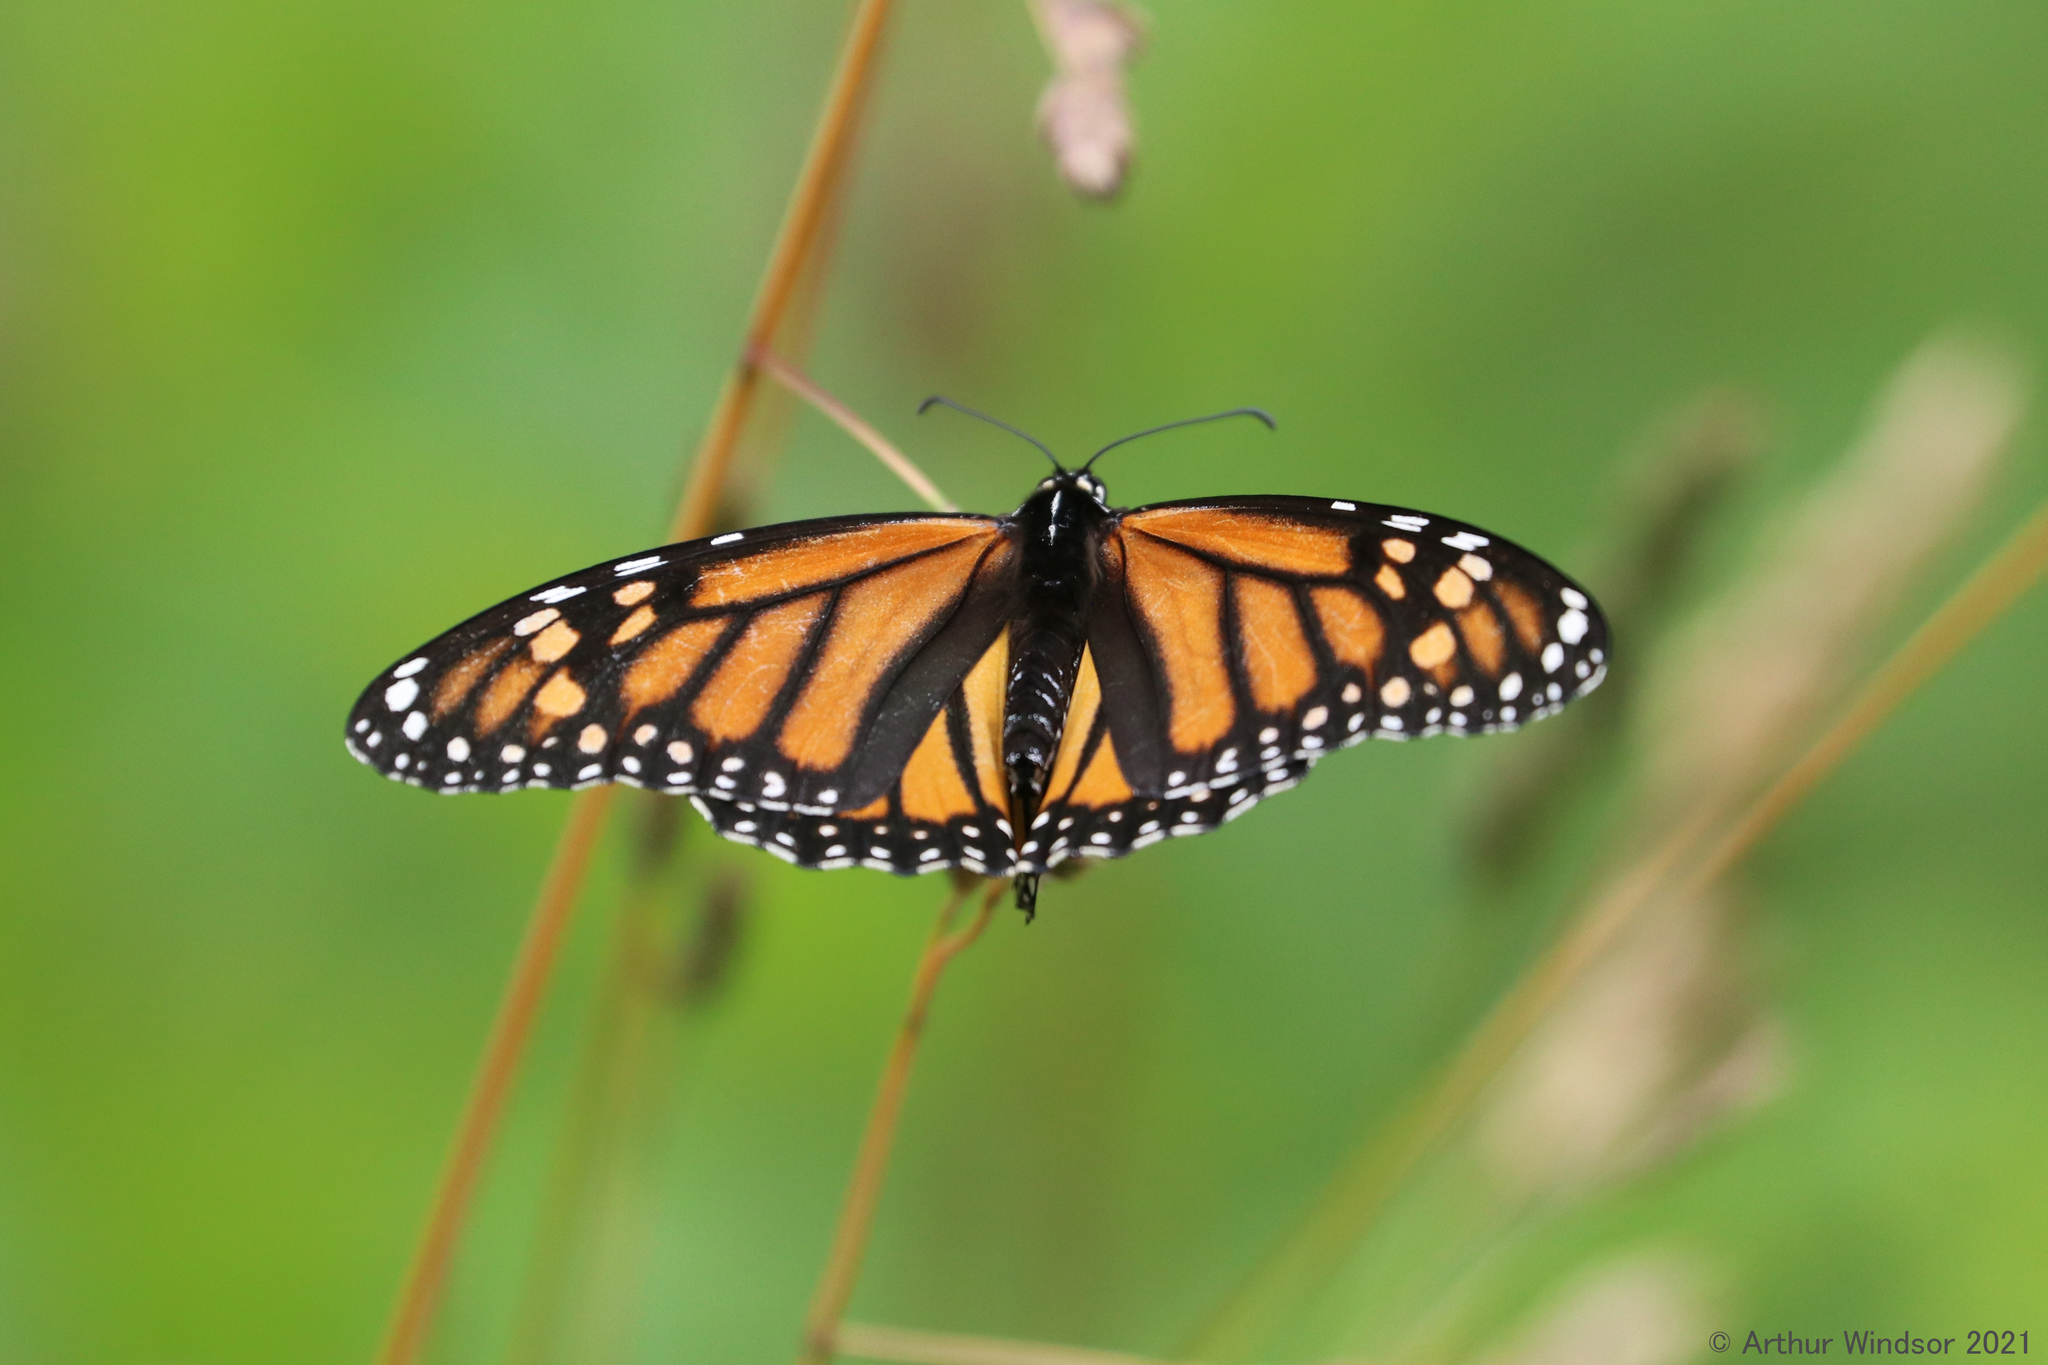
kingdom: Animalia
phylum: Arthropoda
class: Insecta
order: Lepidoptera
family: Nymphalidae
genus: Danaus
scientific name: Danaus plexippus
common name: Monarch
